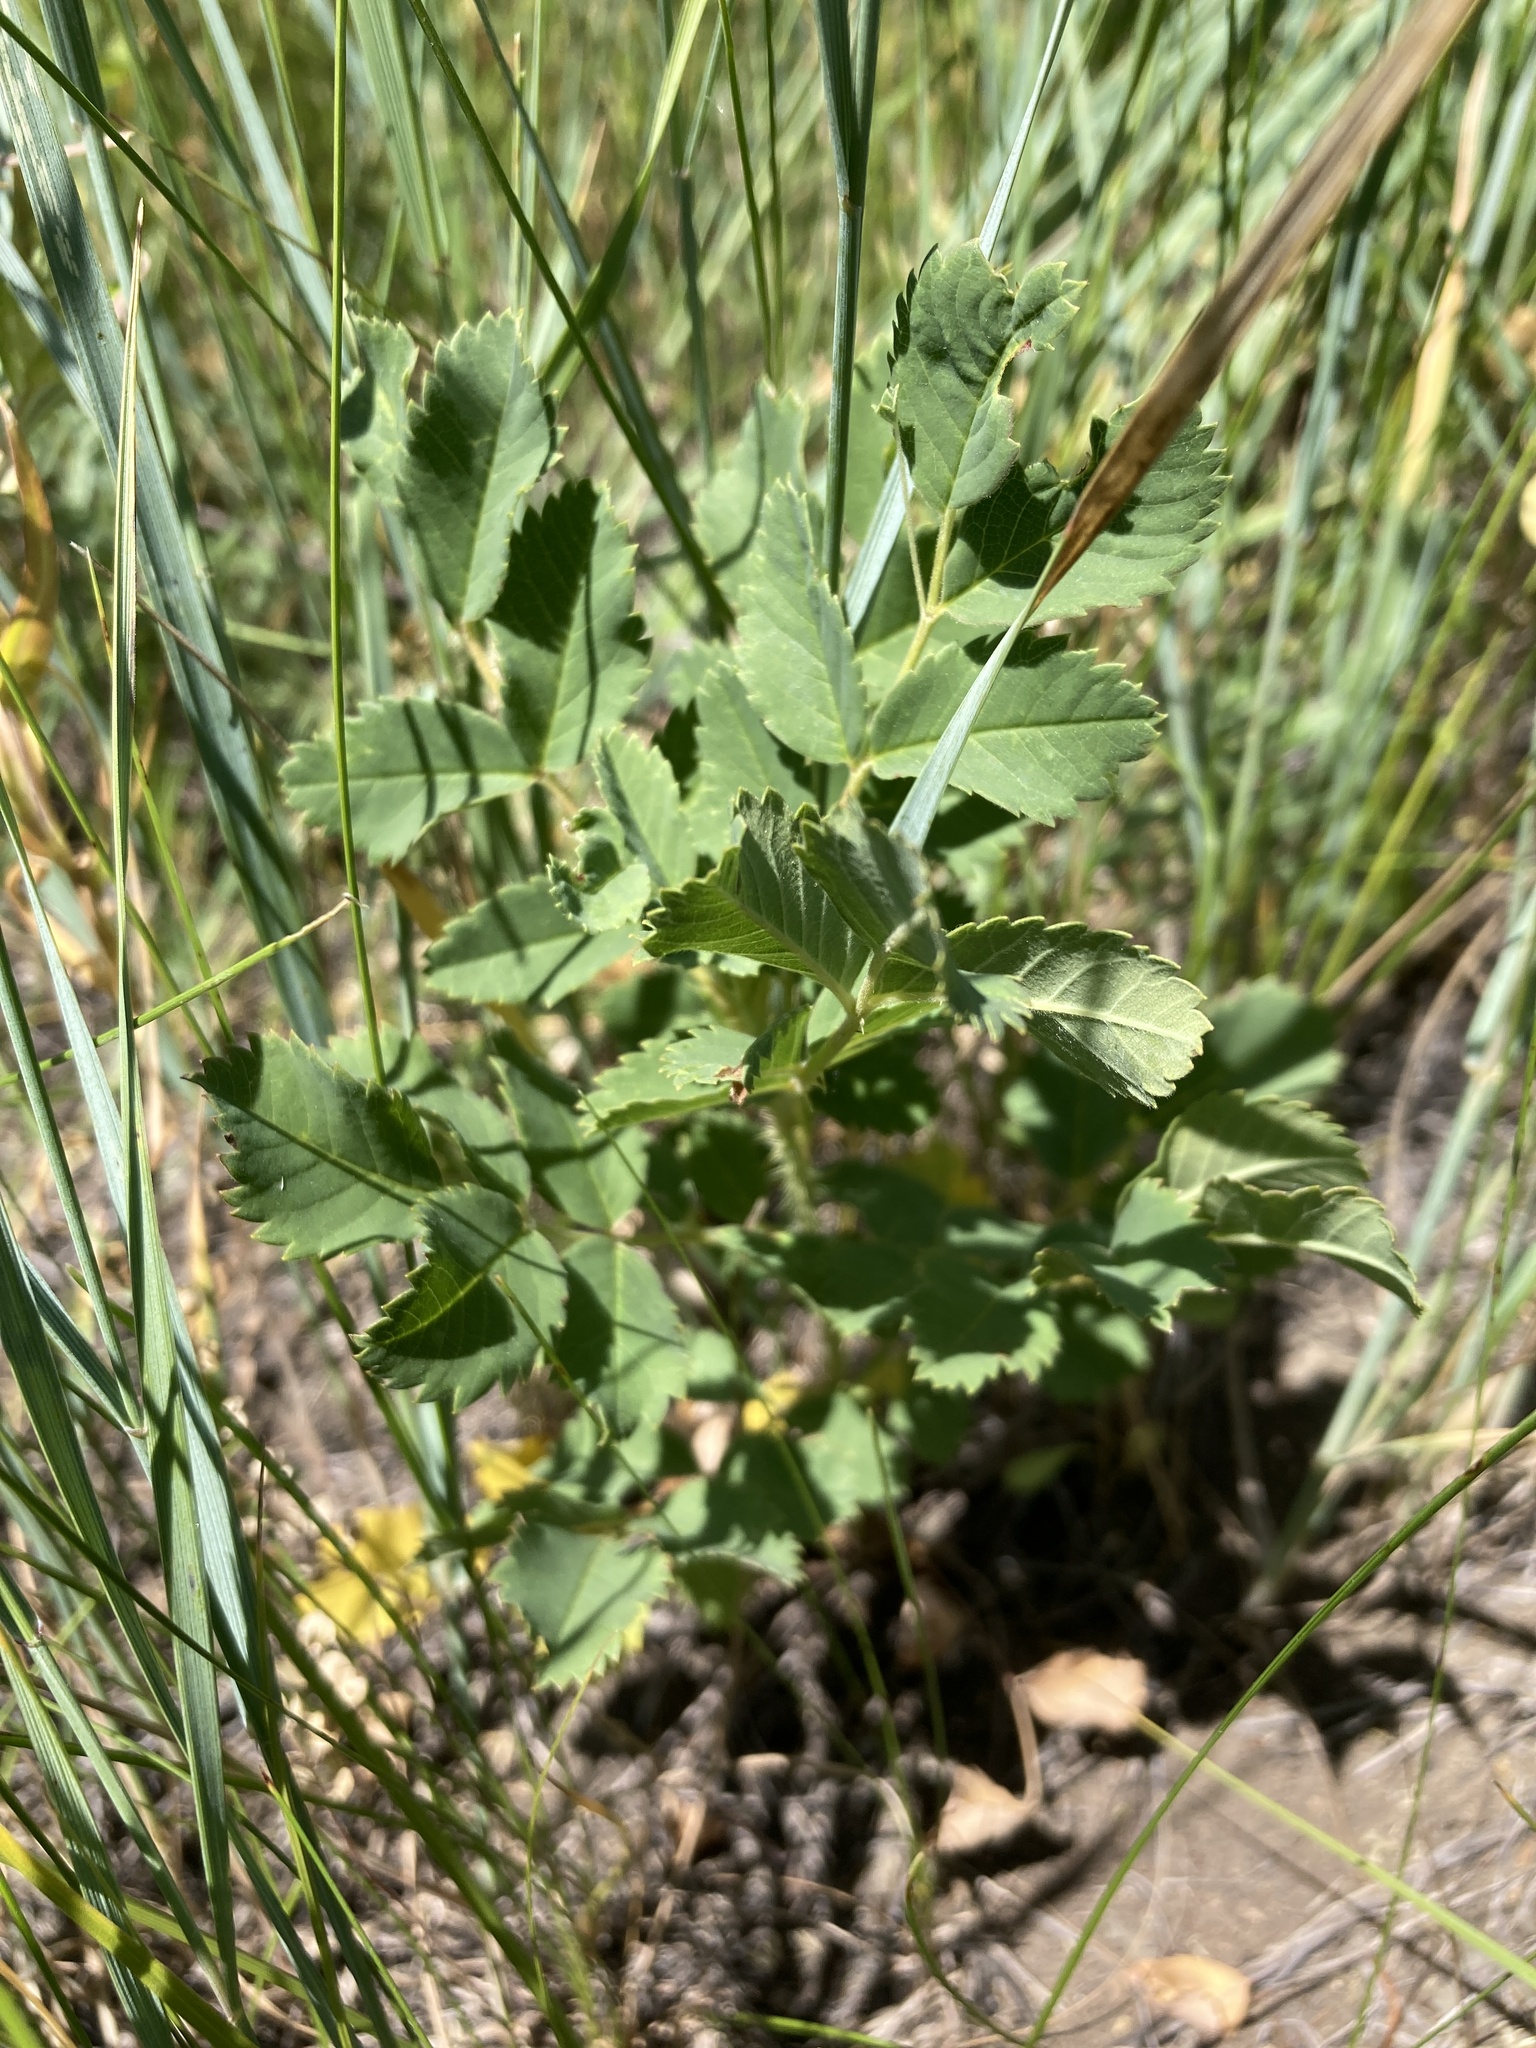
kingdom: Plantae
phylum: Tracheophyta
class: Magnoliopsida
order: Rosales
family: Rosaceae
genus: Rosa
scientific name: Rosa arkansana
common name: Prairie rose
